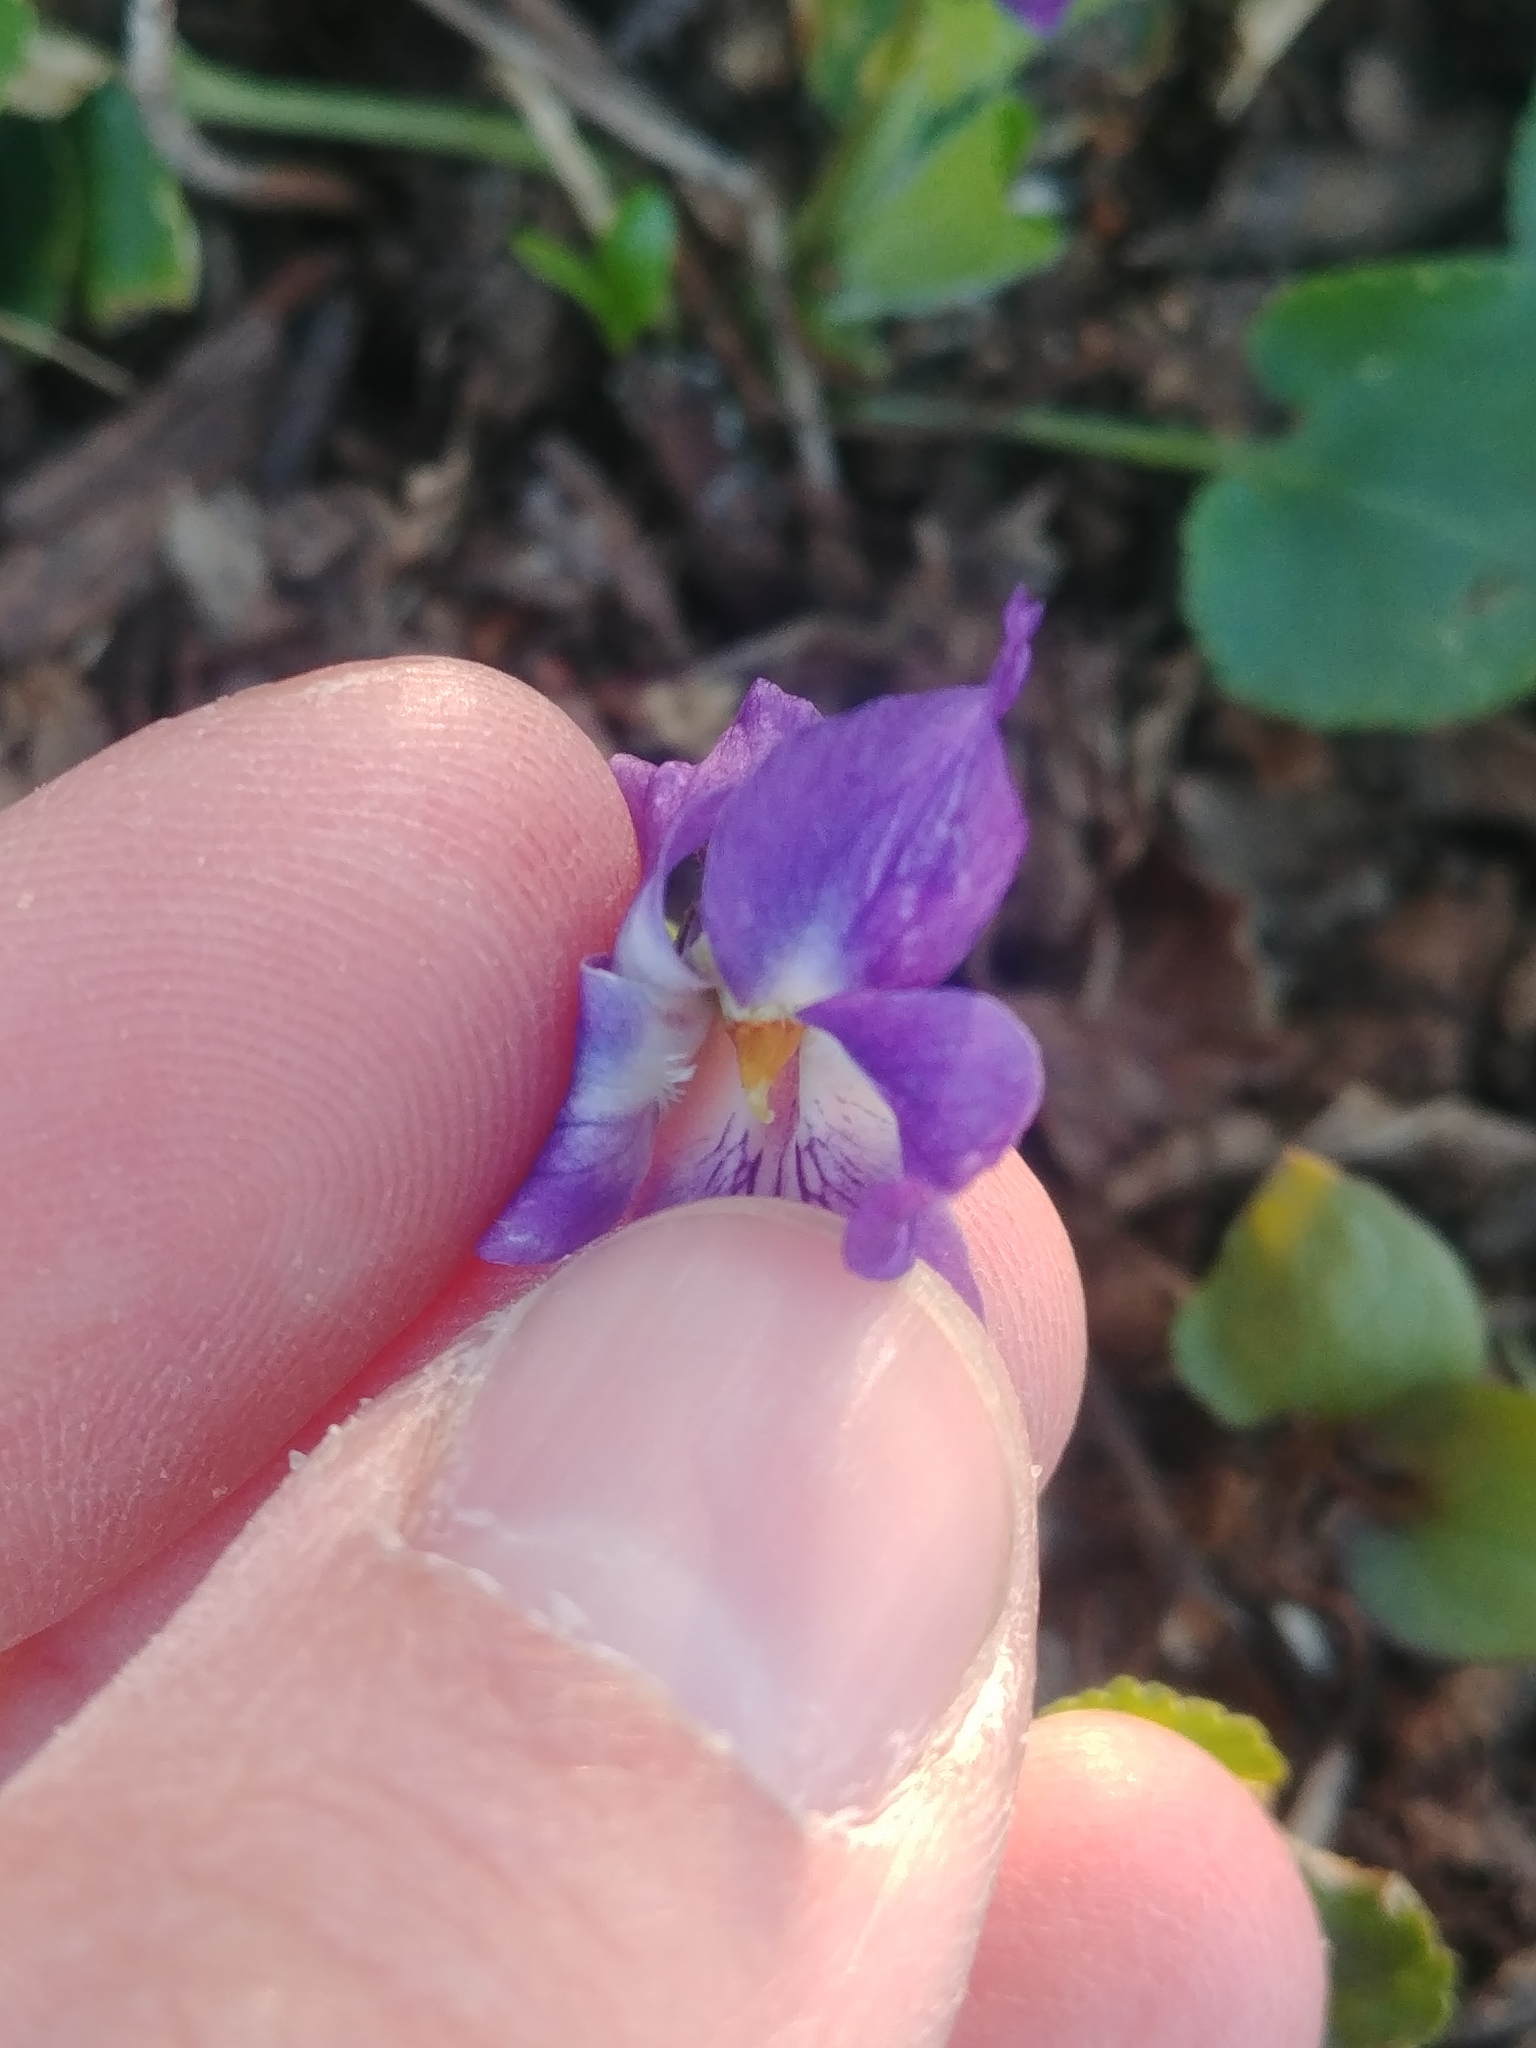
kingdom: Plantae
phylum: Tracheophyta
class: Magnoliopsida
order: Malpighiales
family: Violaceae
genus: Viola
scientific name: Viola odorata
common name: Sweet violet
